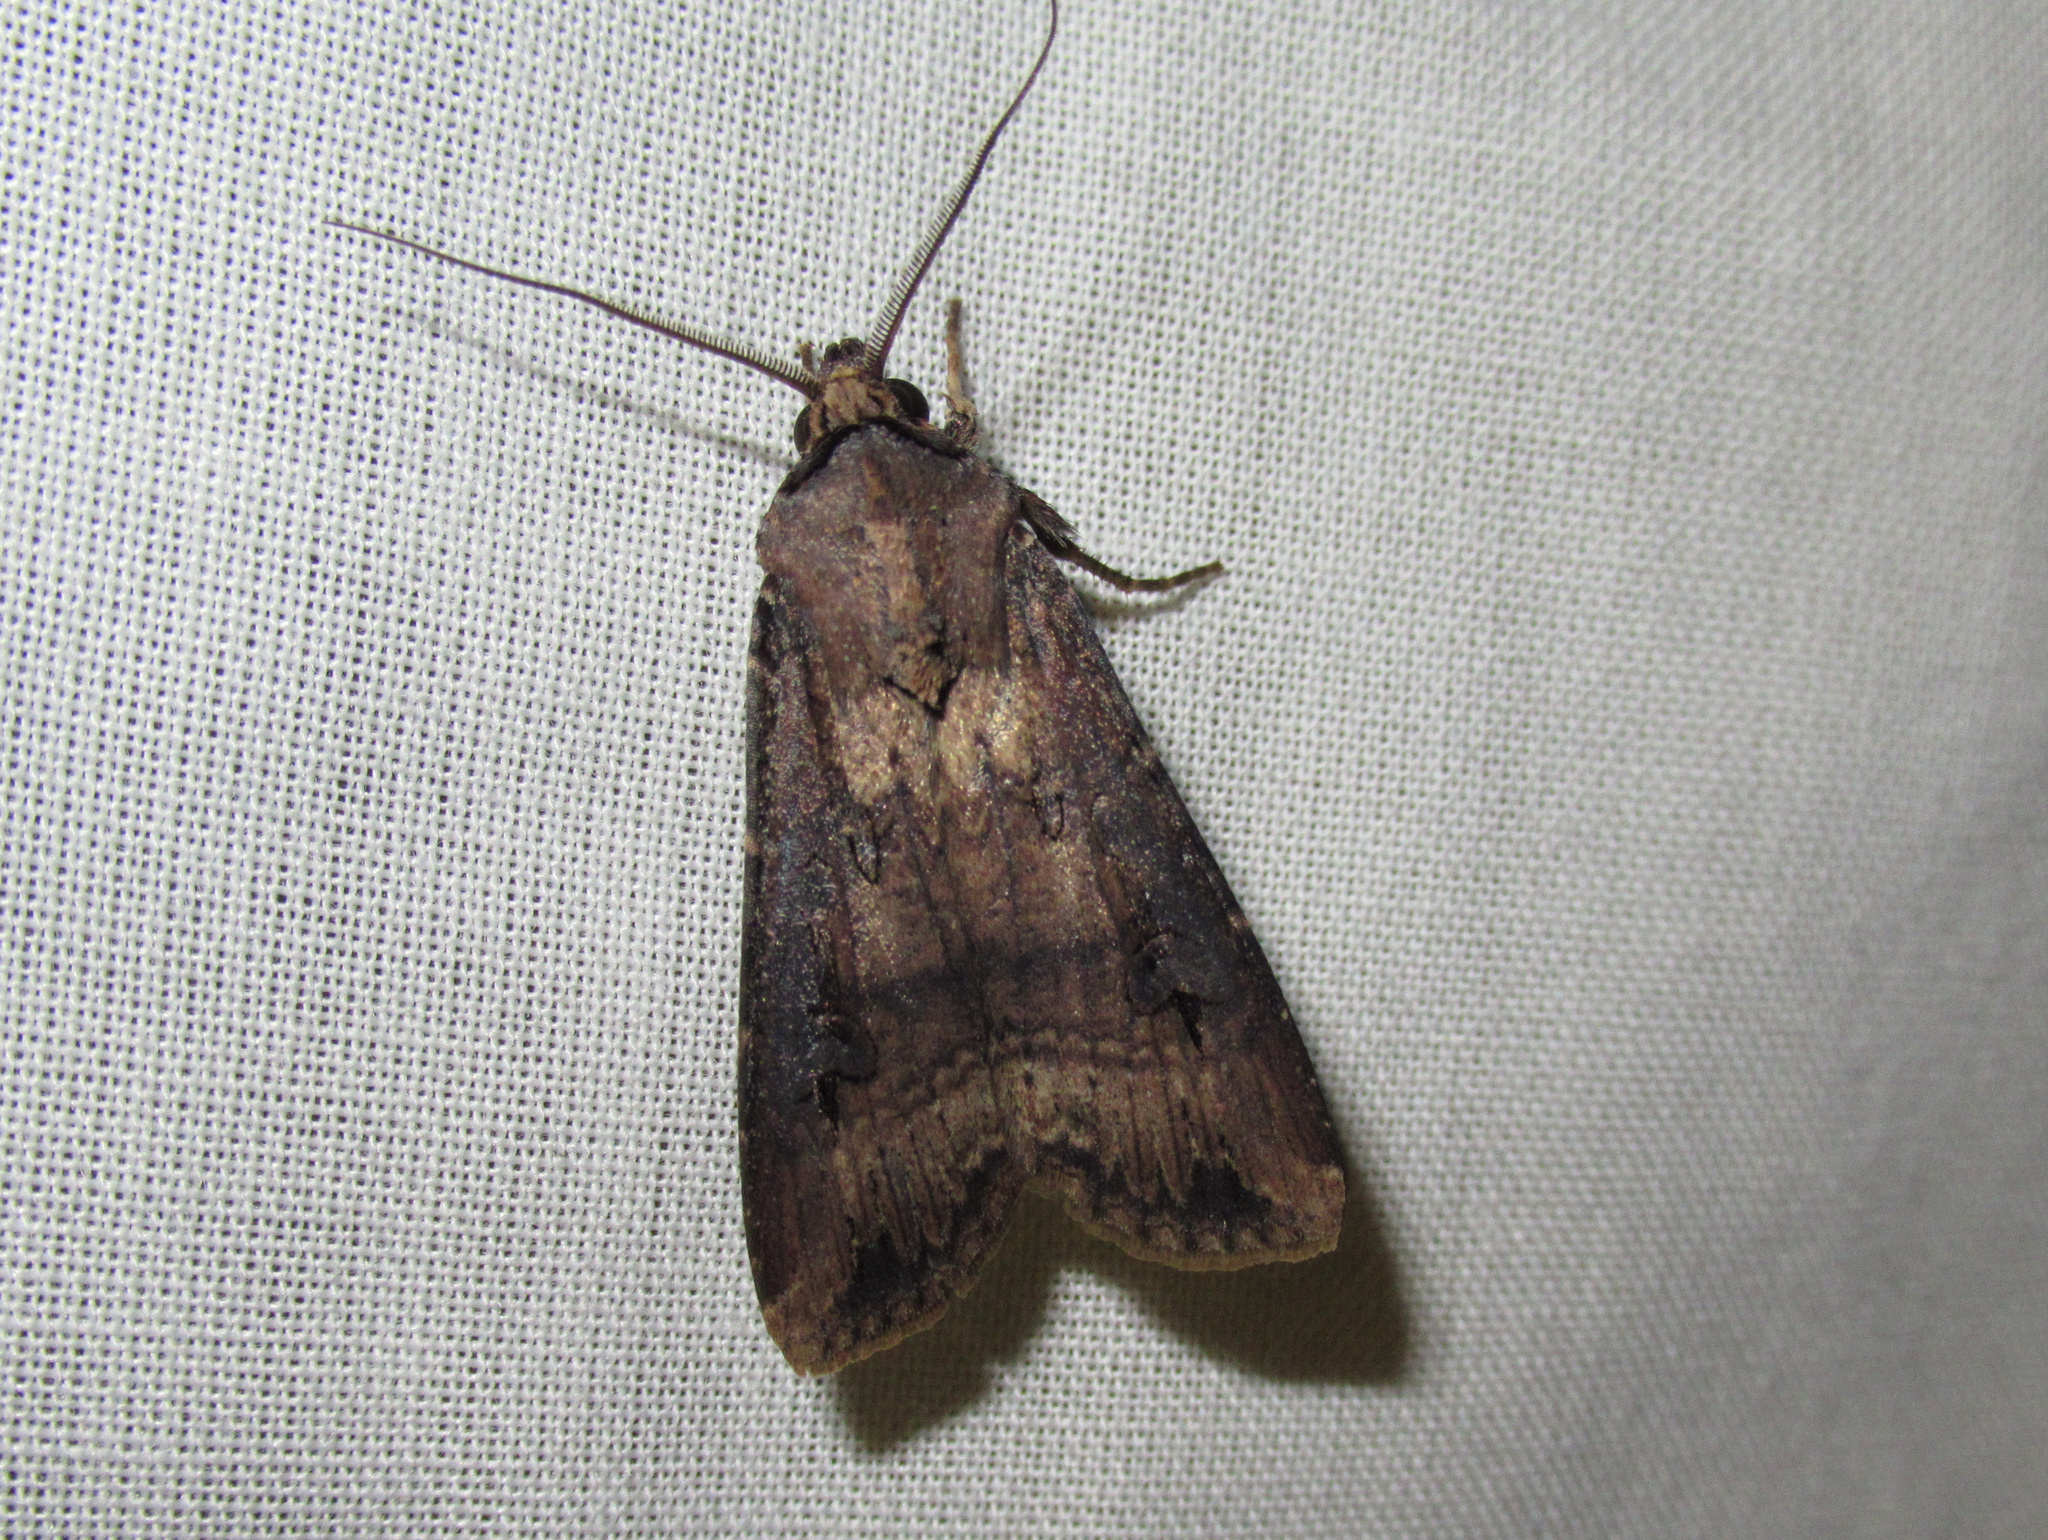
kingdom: Animalia
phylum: Arthropoda
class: Insecta
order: Lepidoptera
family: Noctuidae
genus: Agrotis
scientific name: Agrotis ipsilon
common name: Dark sword-grass
